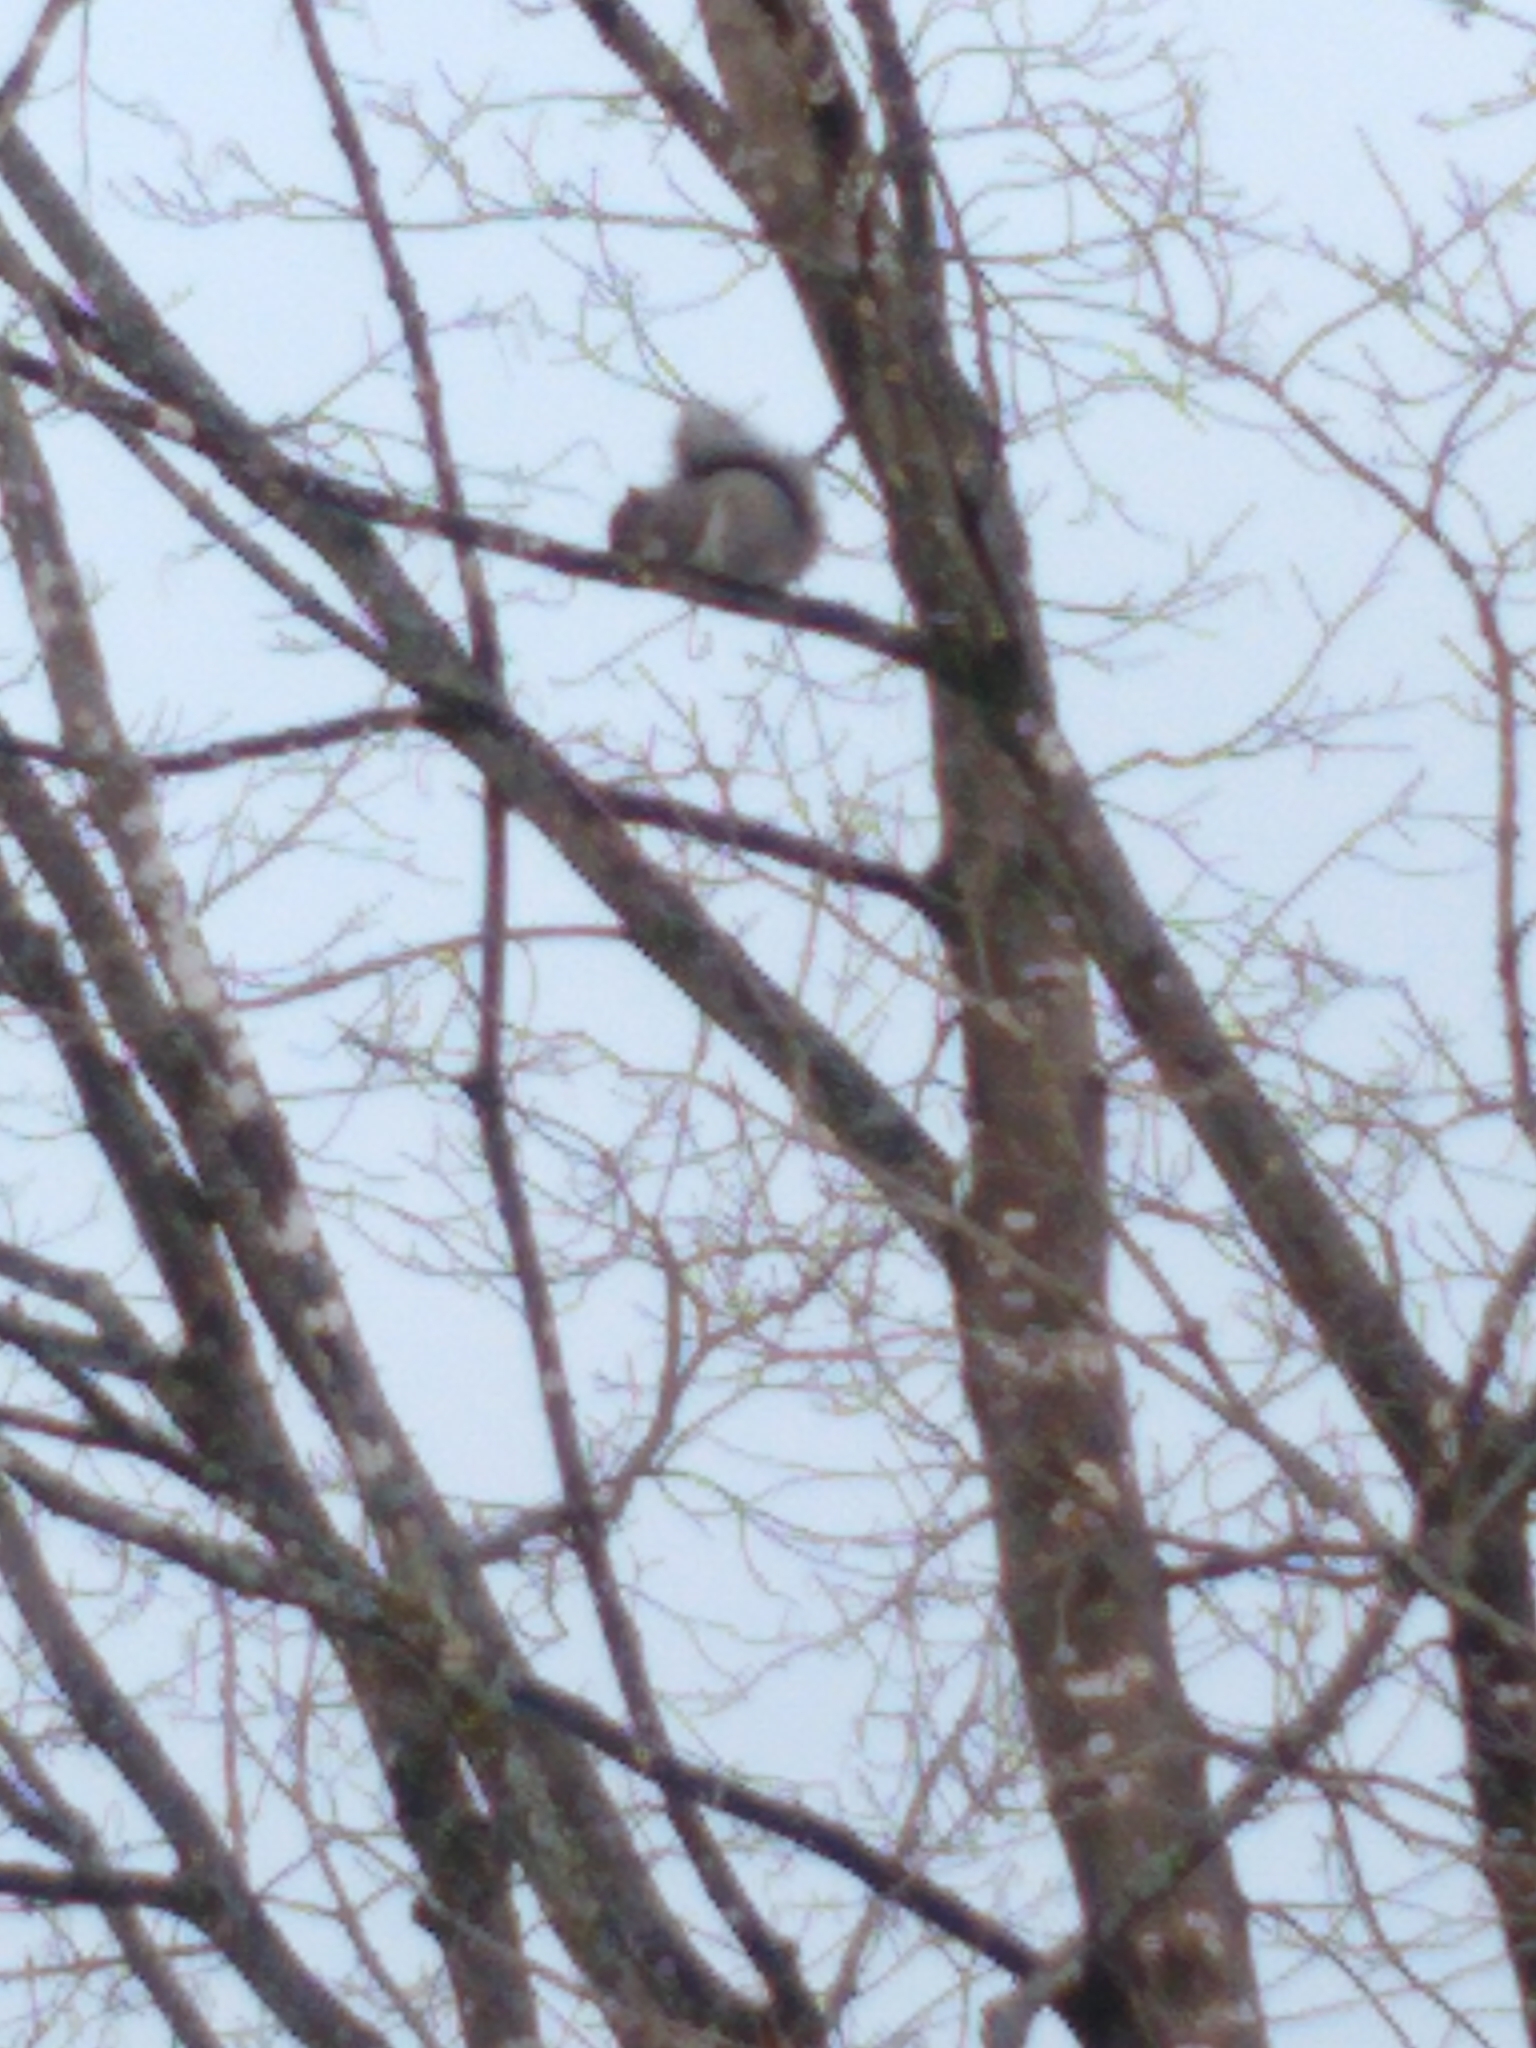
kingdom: Animalia
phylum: Chordata
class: Mammalia
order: Rodentia
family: Sciuridae
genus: Sciurus
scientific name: Sciurus carolinensis
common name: Eastern gray squirrel
